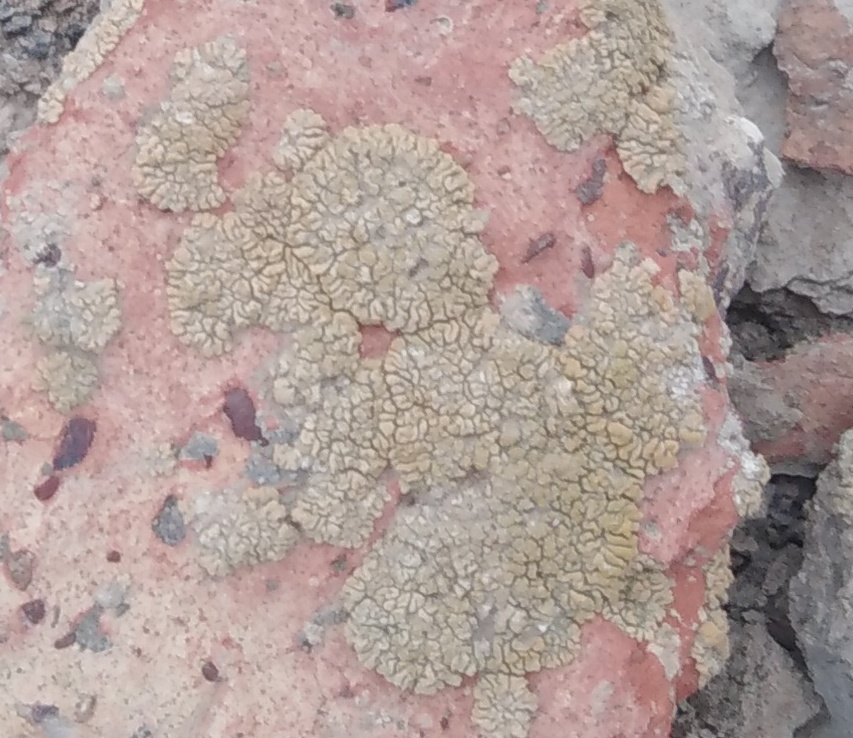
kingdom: Fungi
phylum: Ascomycota
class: Lecanoromycetes
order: Teloschistales
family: Teloschistaceae
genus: Calogaya
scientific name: Calogaya decipiens
